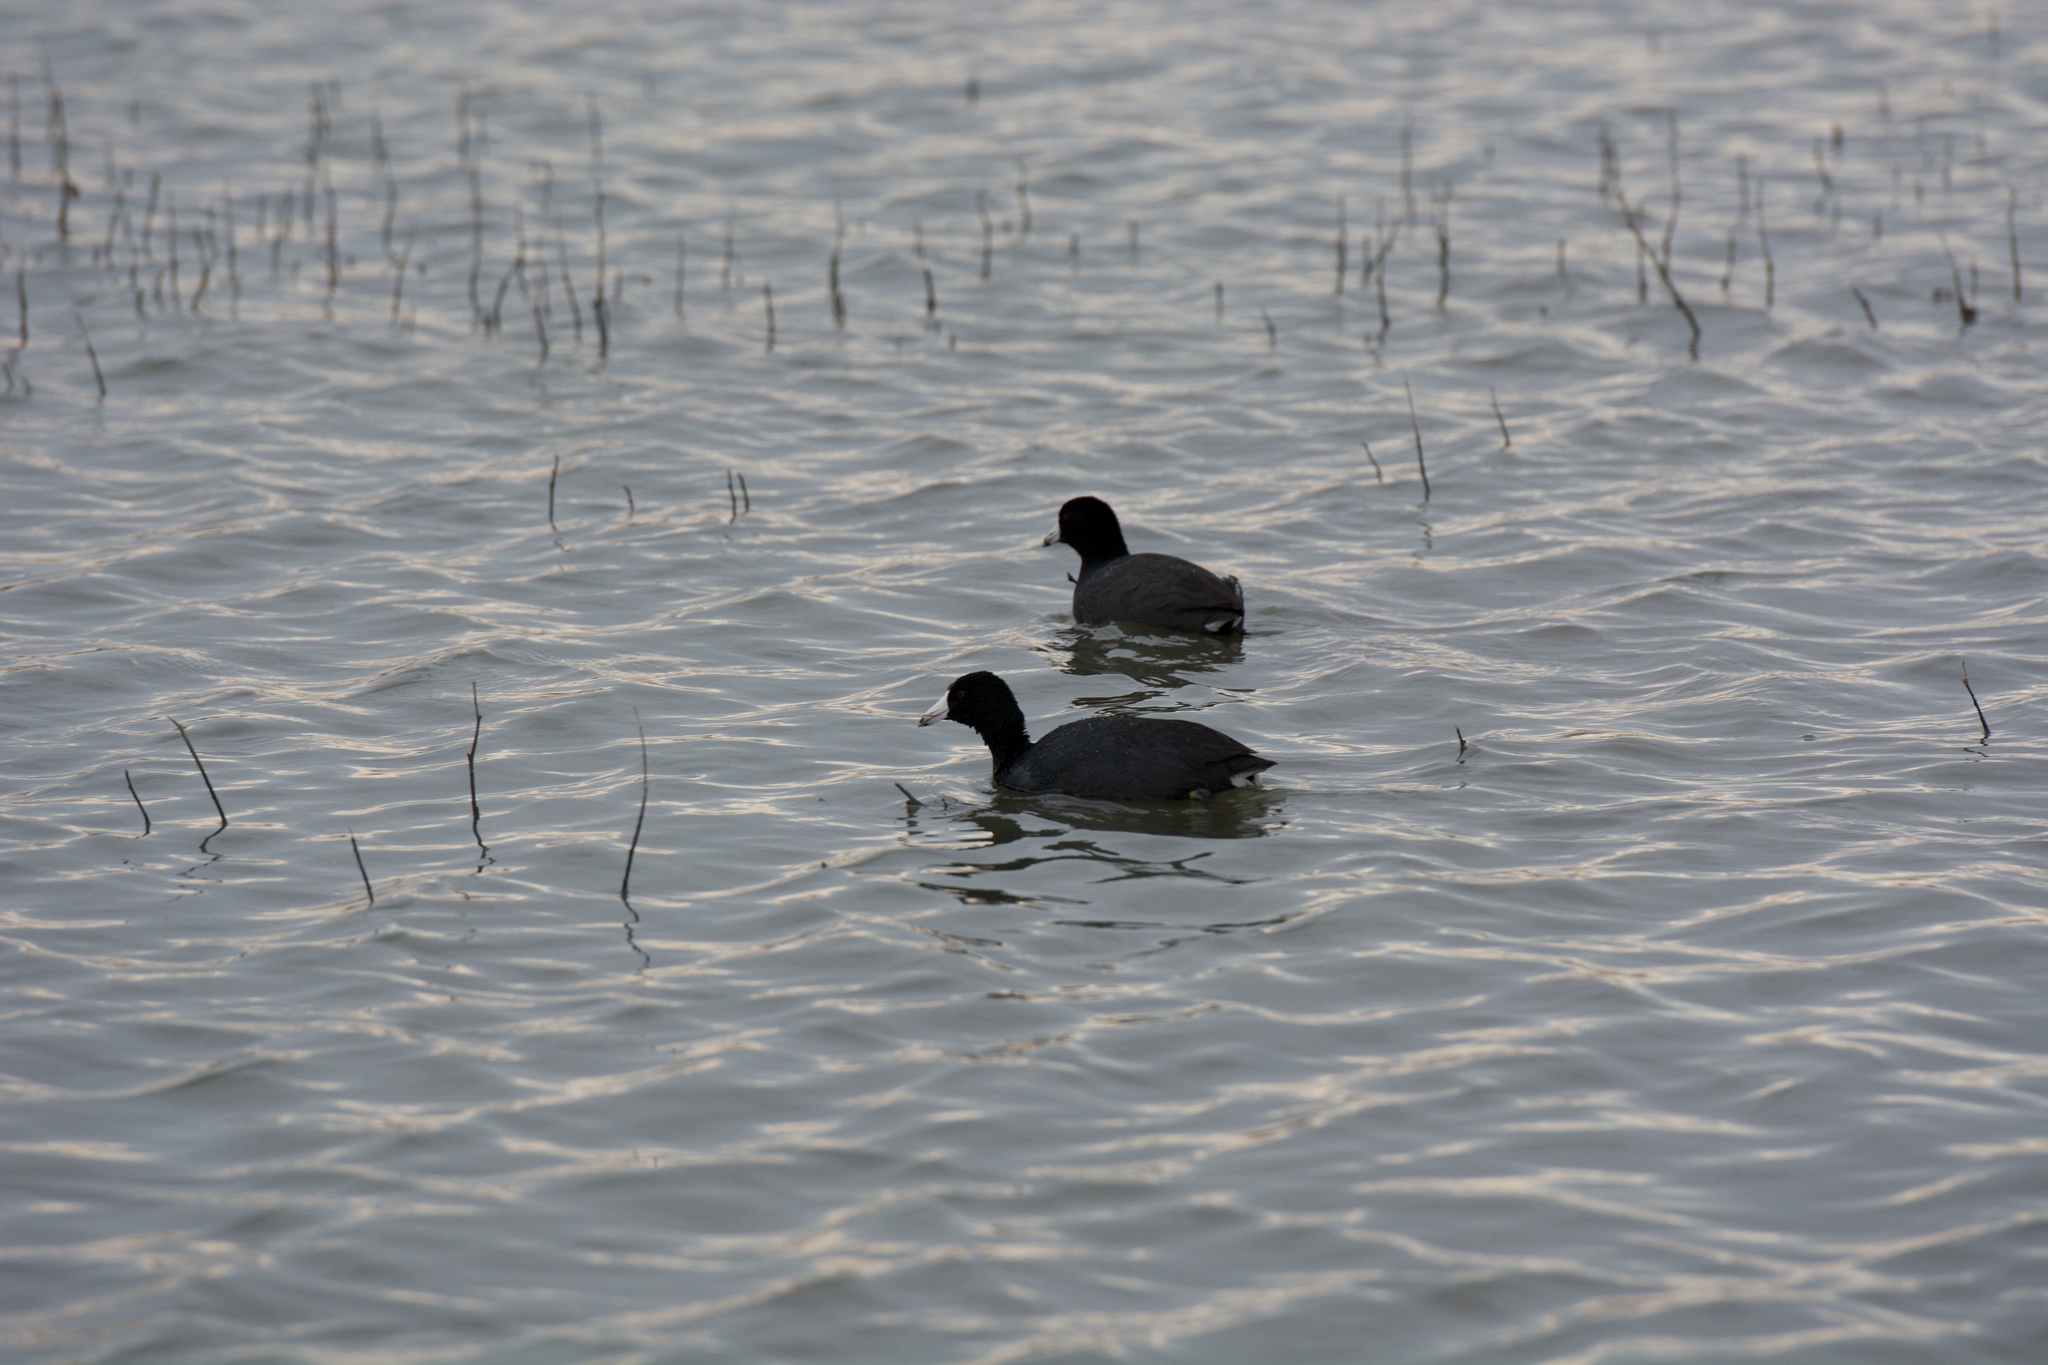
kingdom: Animalia
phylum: Chordata
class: Aves
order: Gruiformes
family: Rallidae
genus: Fulica
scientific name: Fulica americana
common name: American coot
